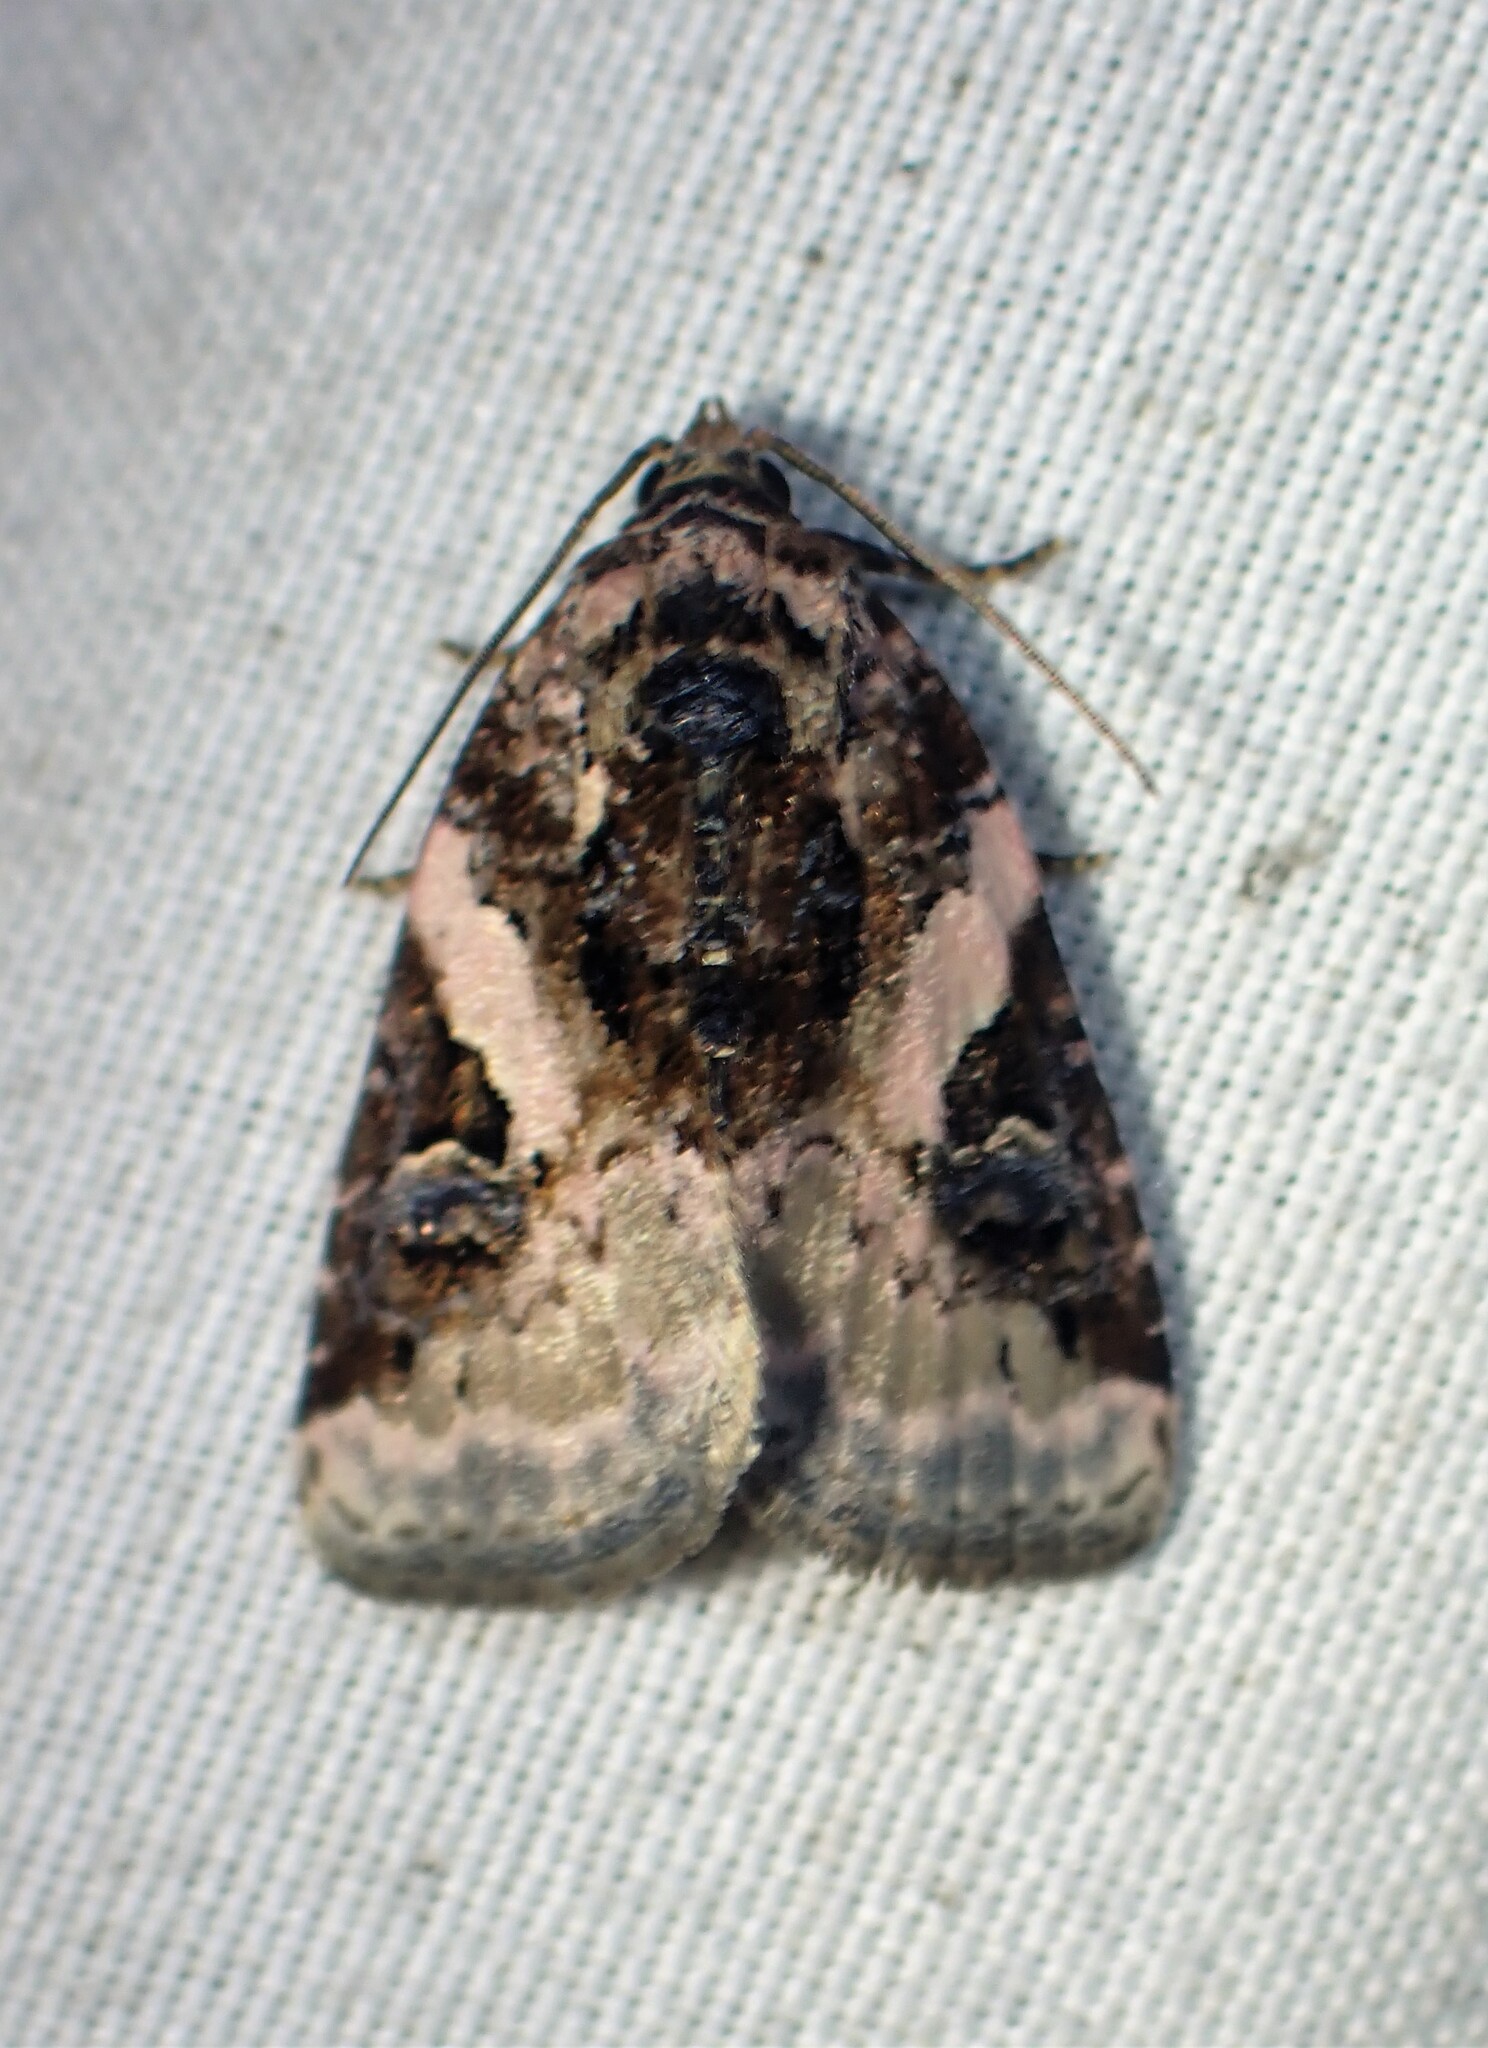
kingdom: Animalia
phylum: Arthropoda
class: Insecta
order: Lepidoptera
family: Noctuidae
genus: Pseudeustrotia
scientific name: Pseudeustrotia carneola
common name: Pink-barred lithacodia moth
